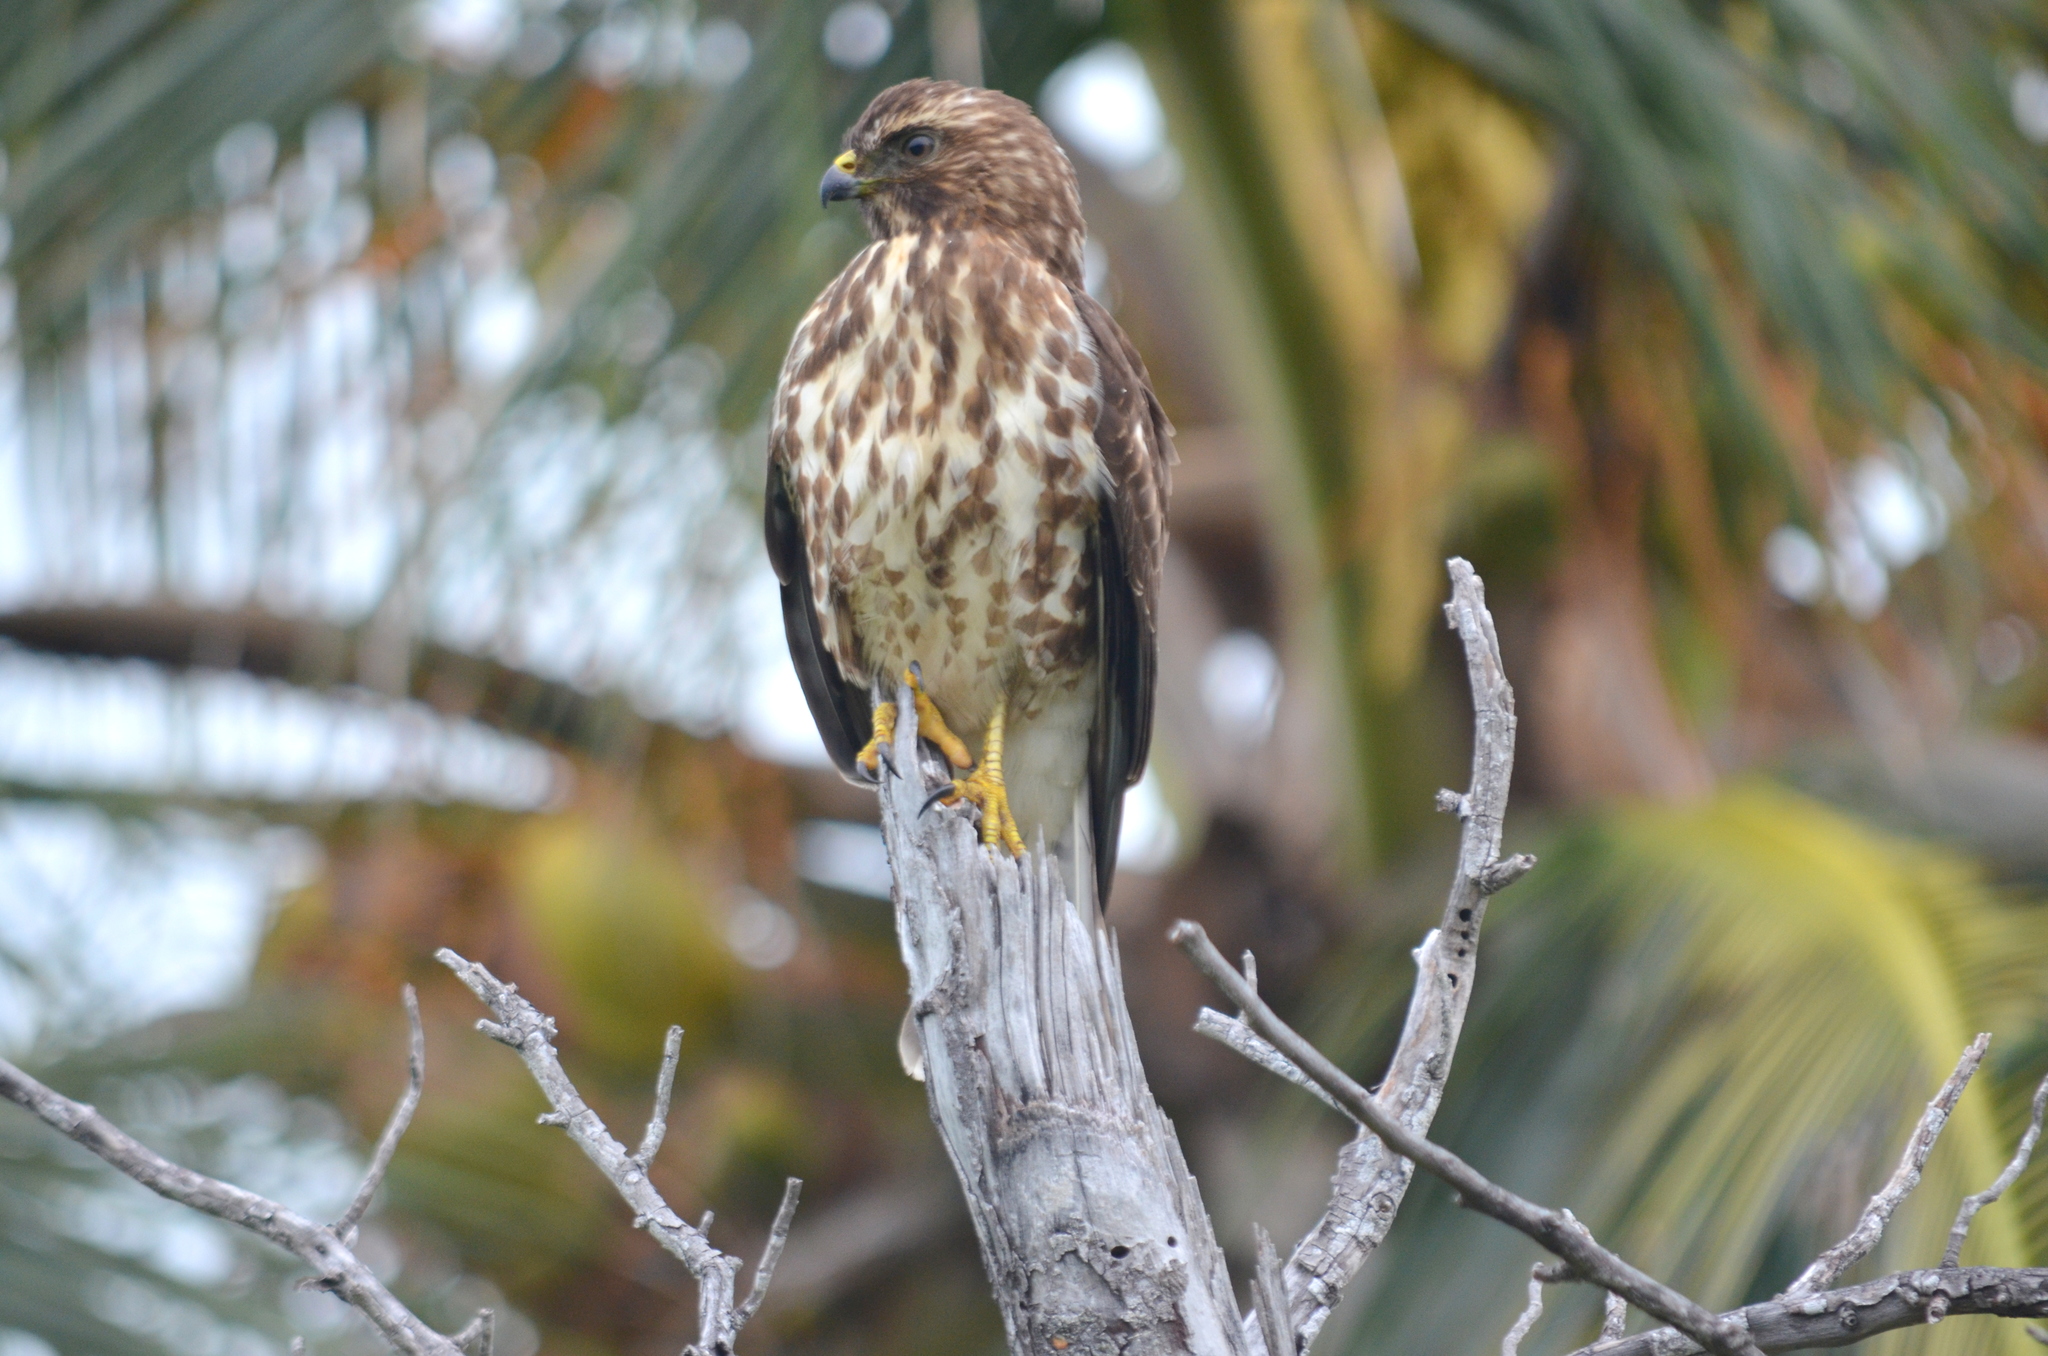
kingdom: Animalia
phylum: Chordata
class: Aves
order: Accipitriformes
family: Accipitridae
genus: Buteo
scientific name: Buteo platypterus
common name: Broad-winged hawk
